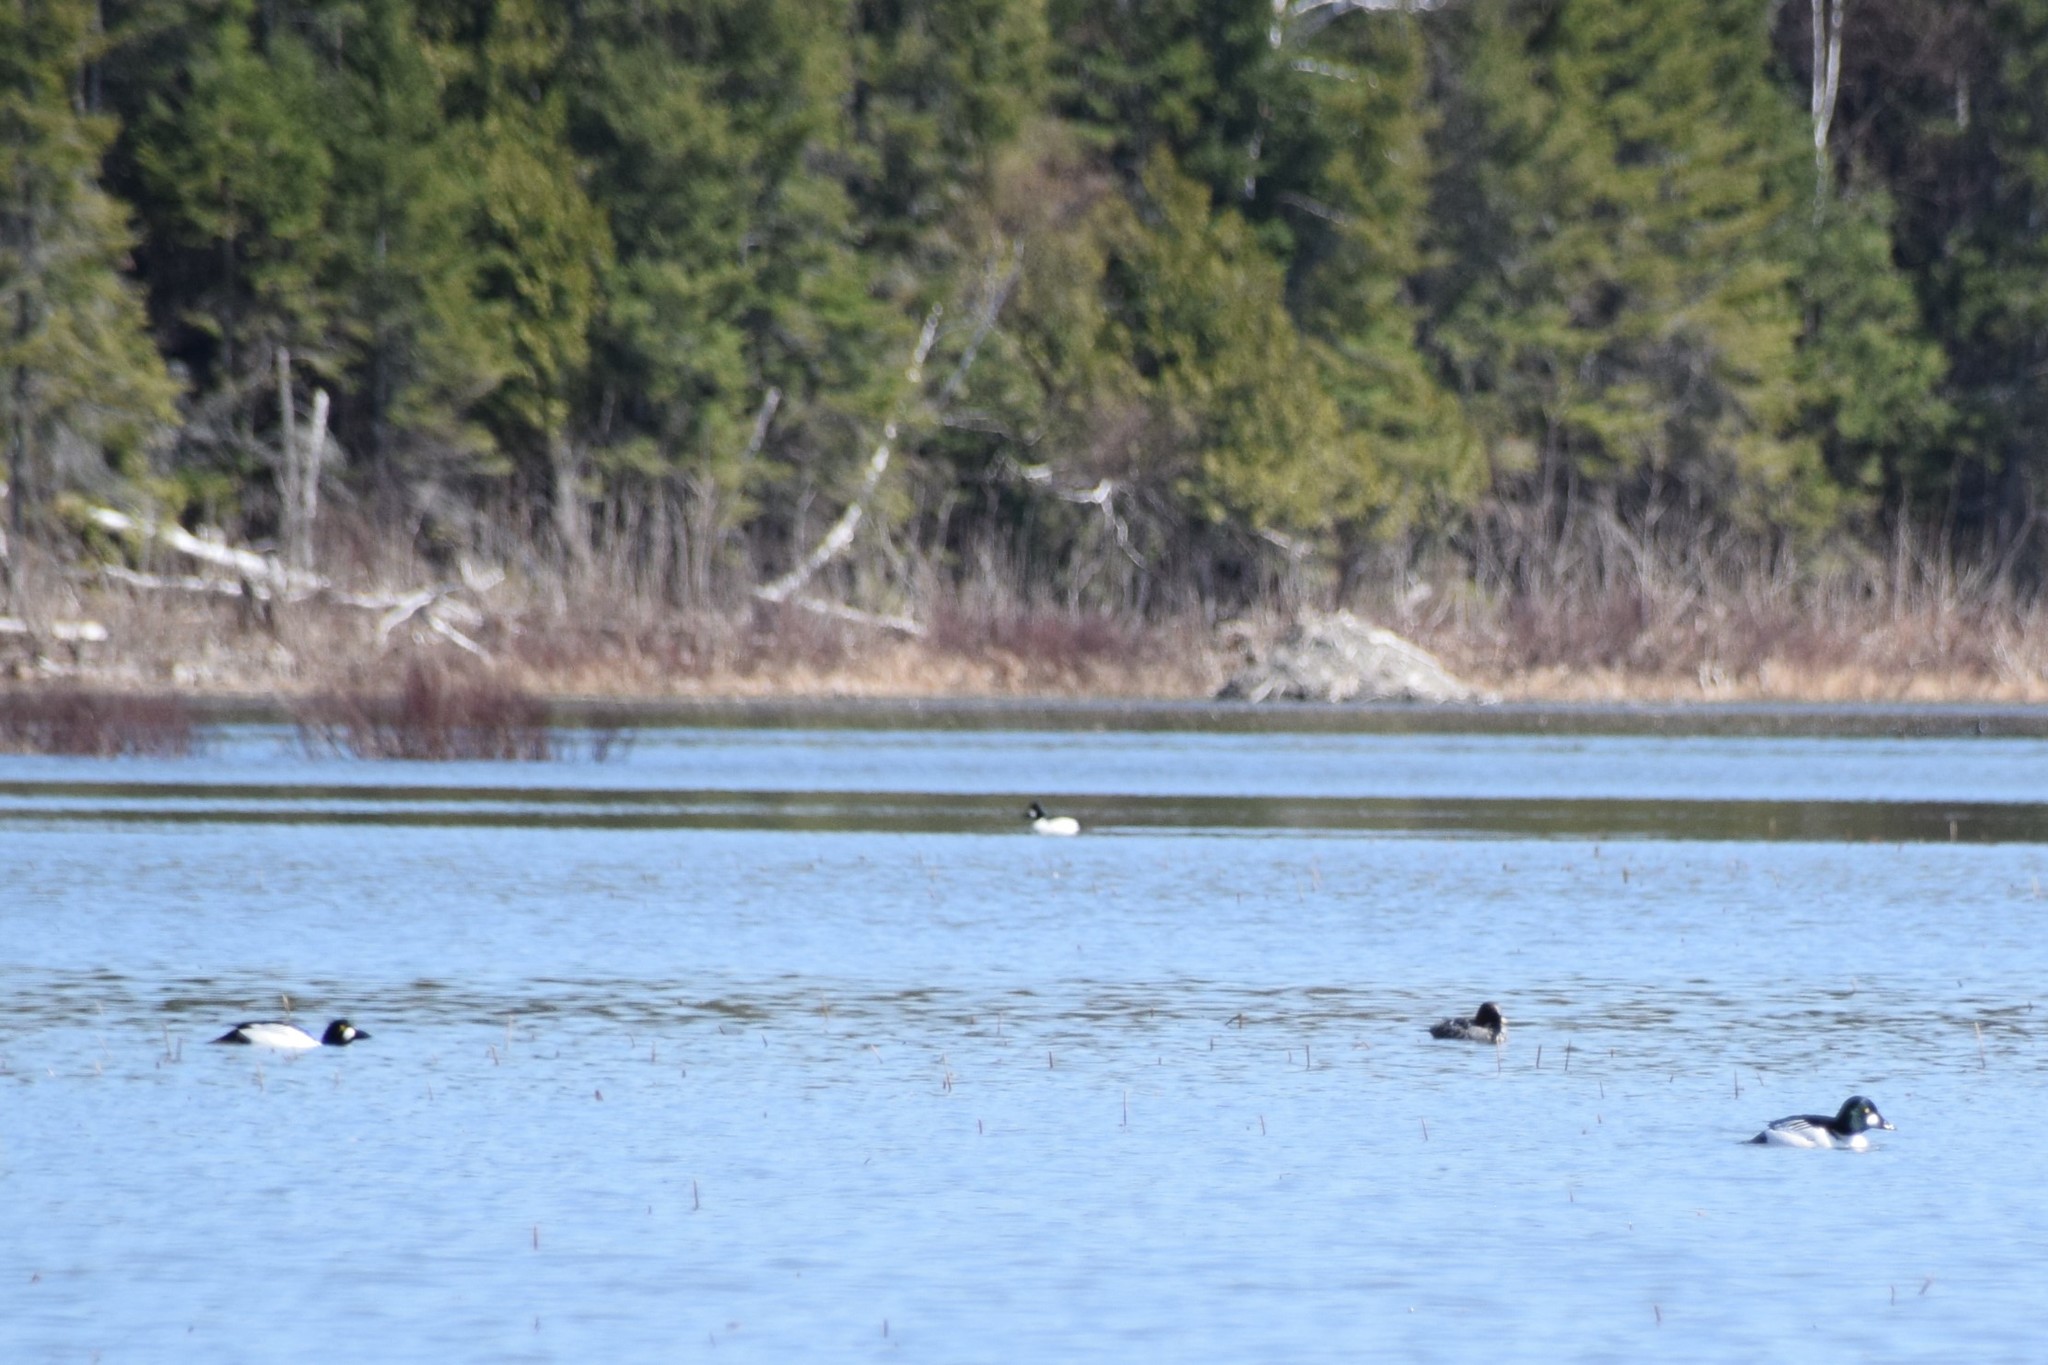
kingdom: Animalia
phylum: Chordata
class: Aves
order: Anseriformes
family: Anatidae
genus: Bucephala
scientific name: Bucephala clangula
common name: Common goldeneye
